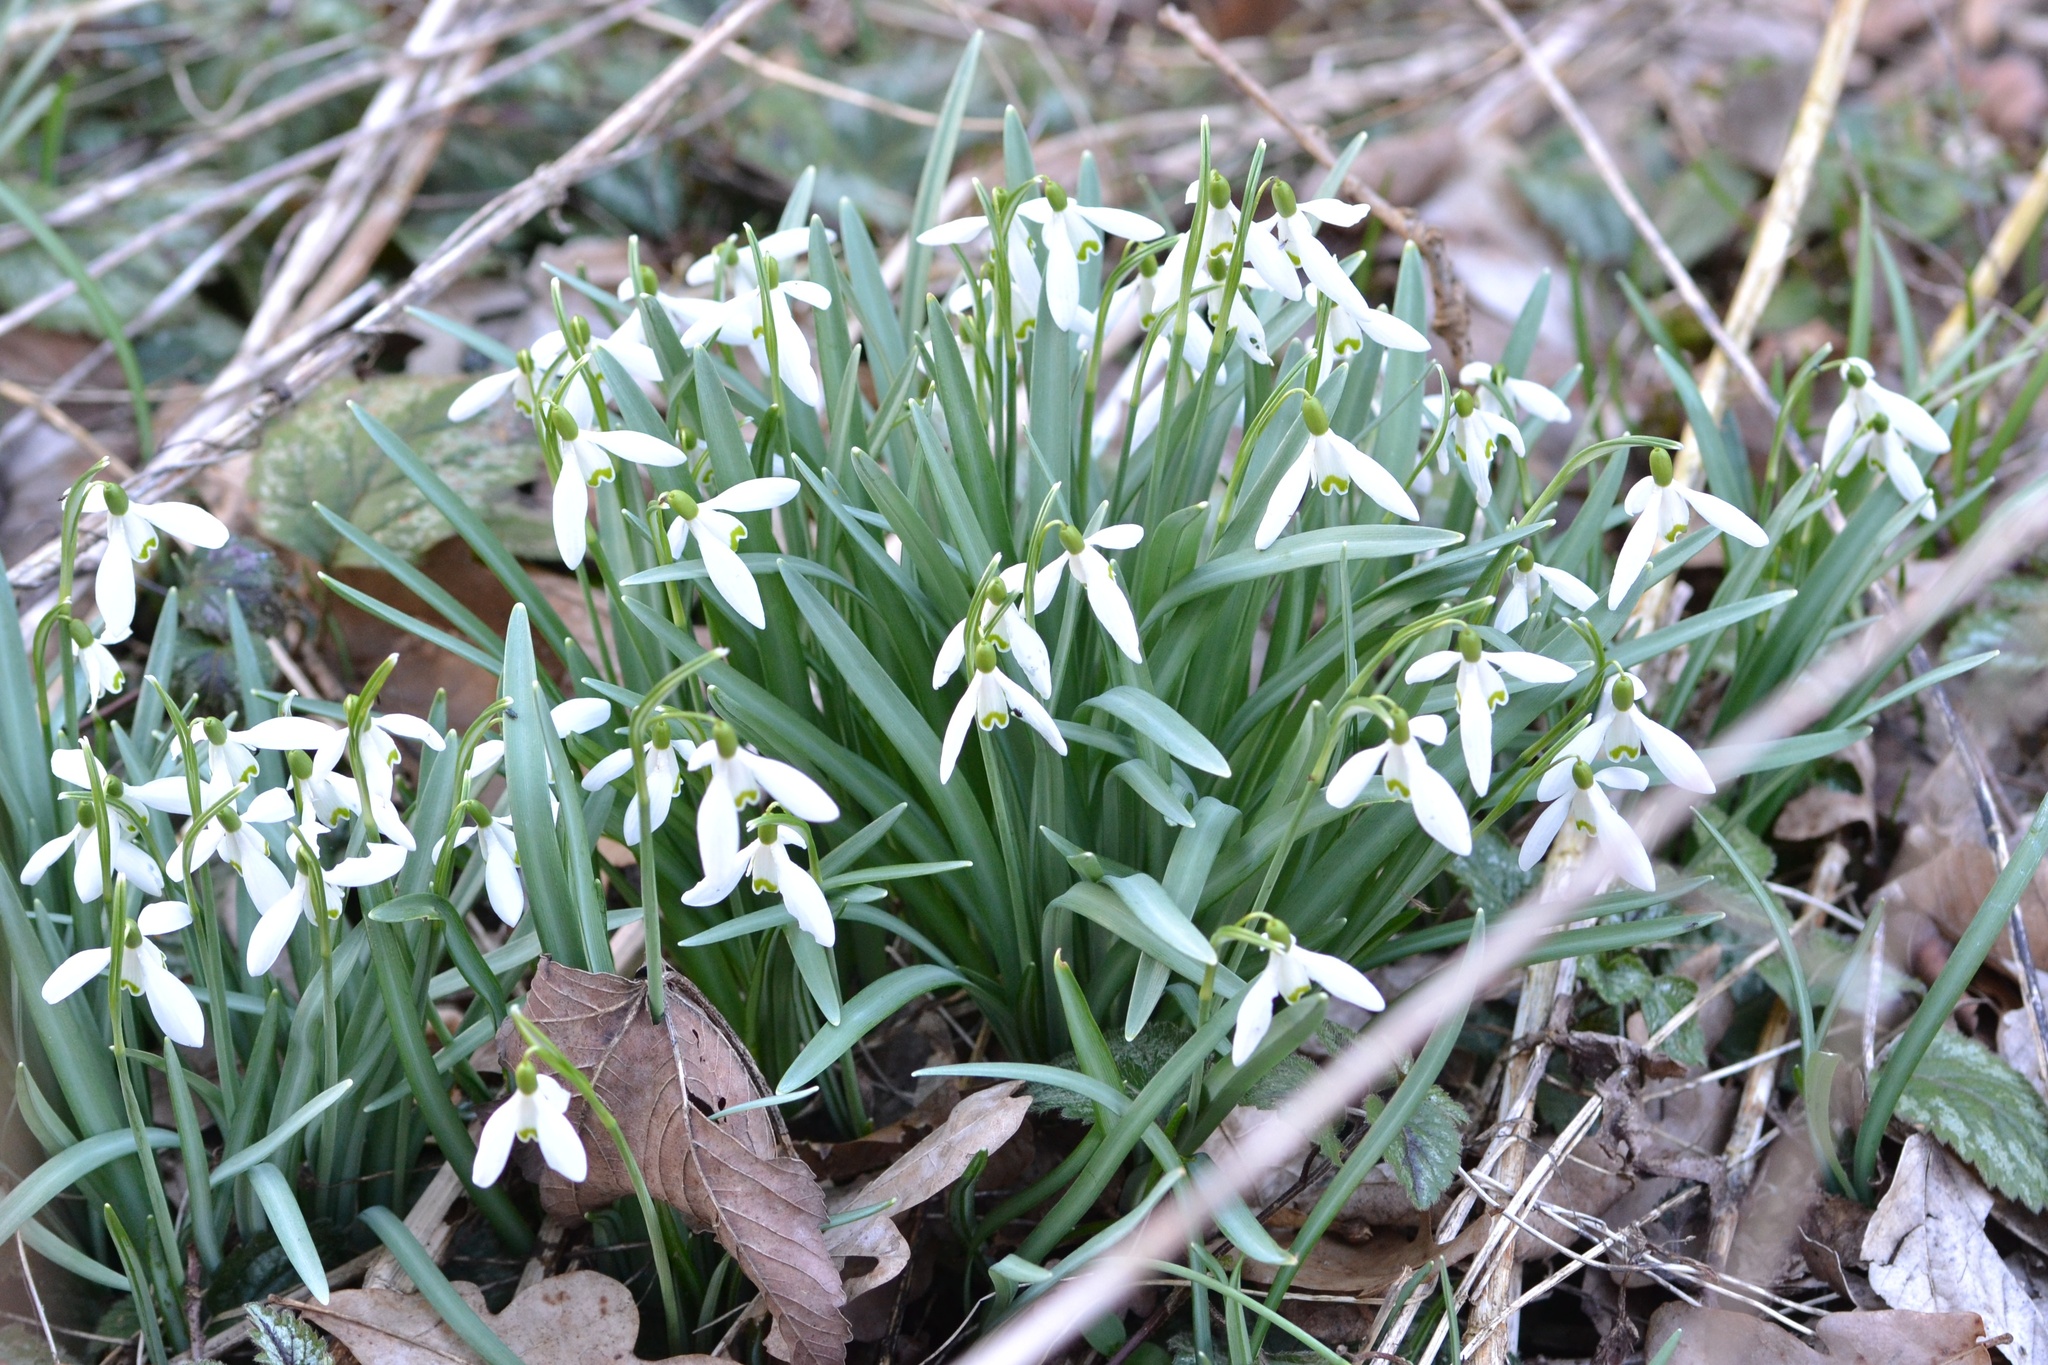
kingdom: Plantae
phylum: Tracheophyta
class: Liliopsida
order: Asparagales
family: Amaryllidaceae
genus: Galanthus
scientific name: Galanthus nivalis
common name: Snowdrop
